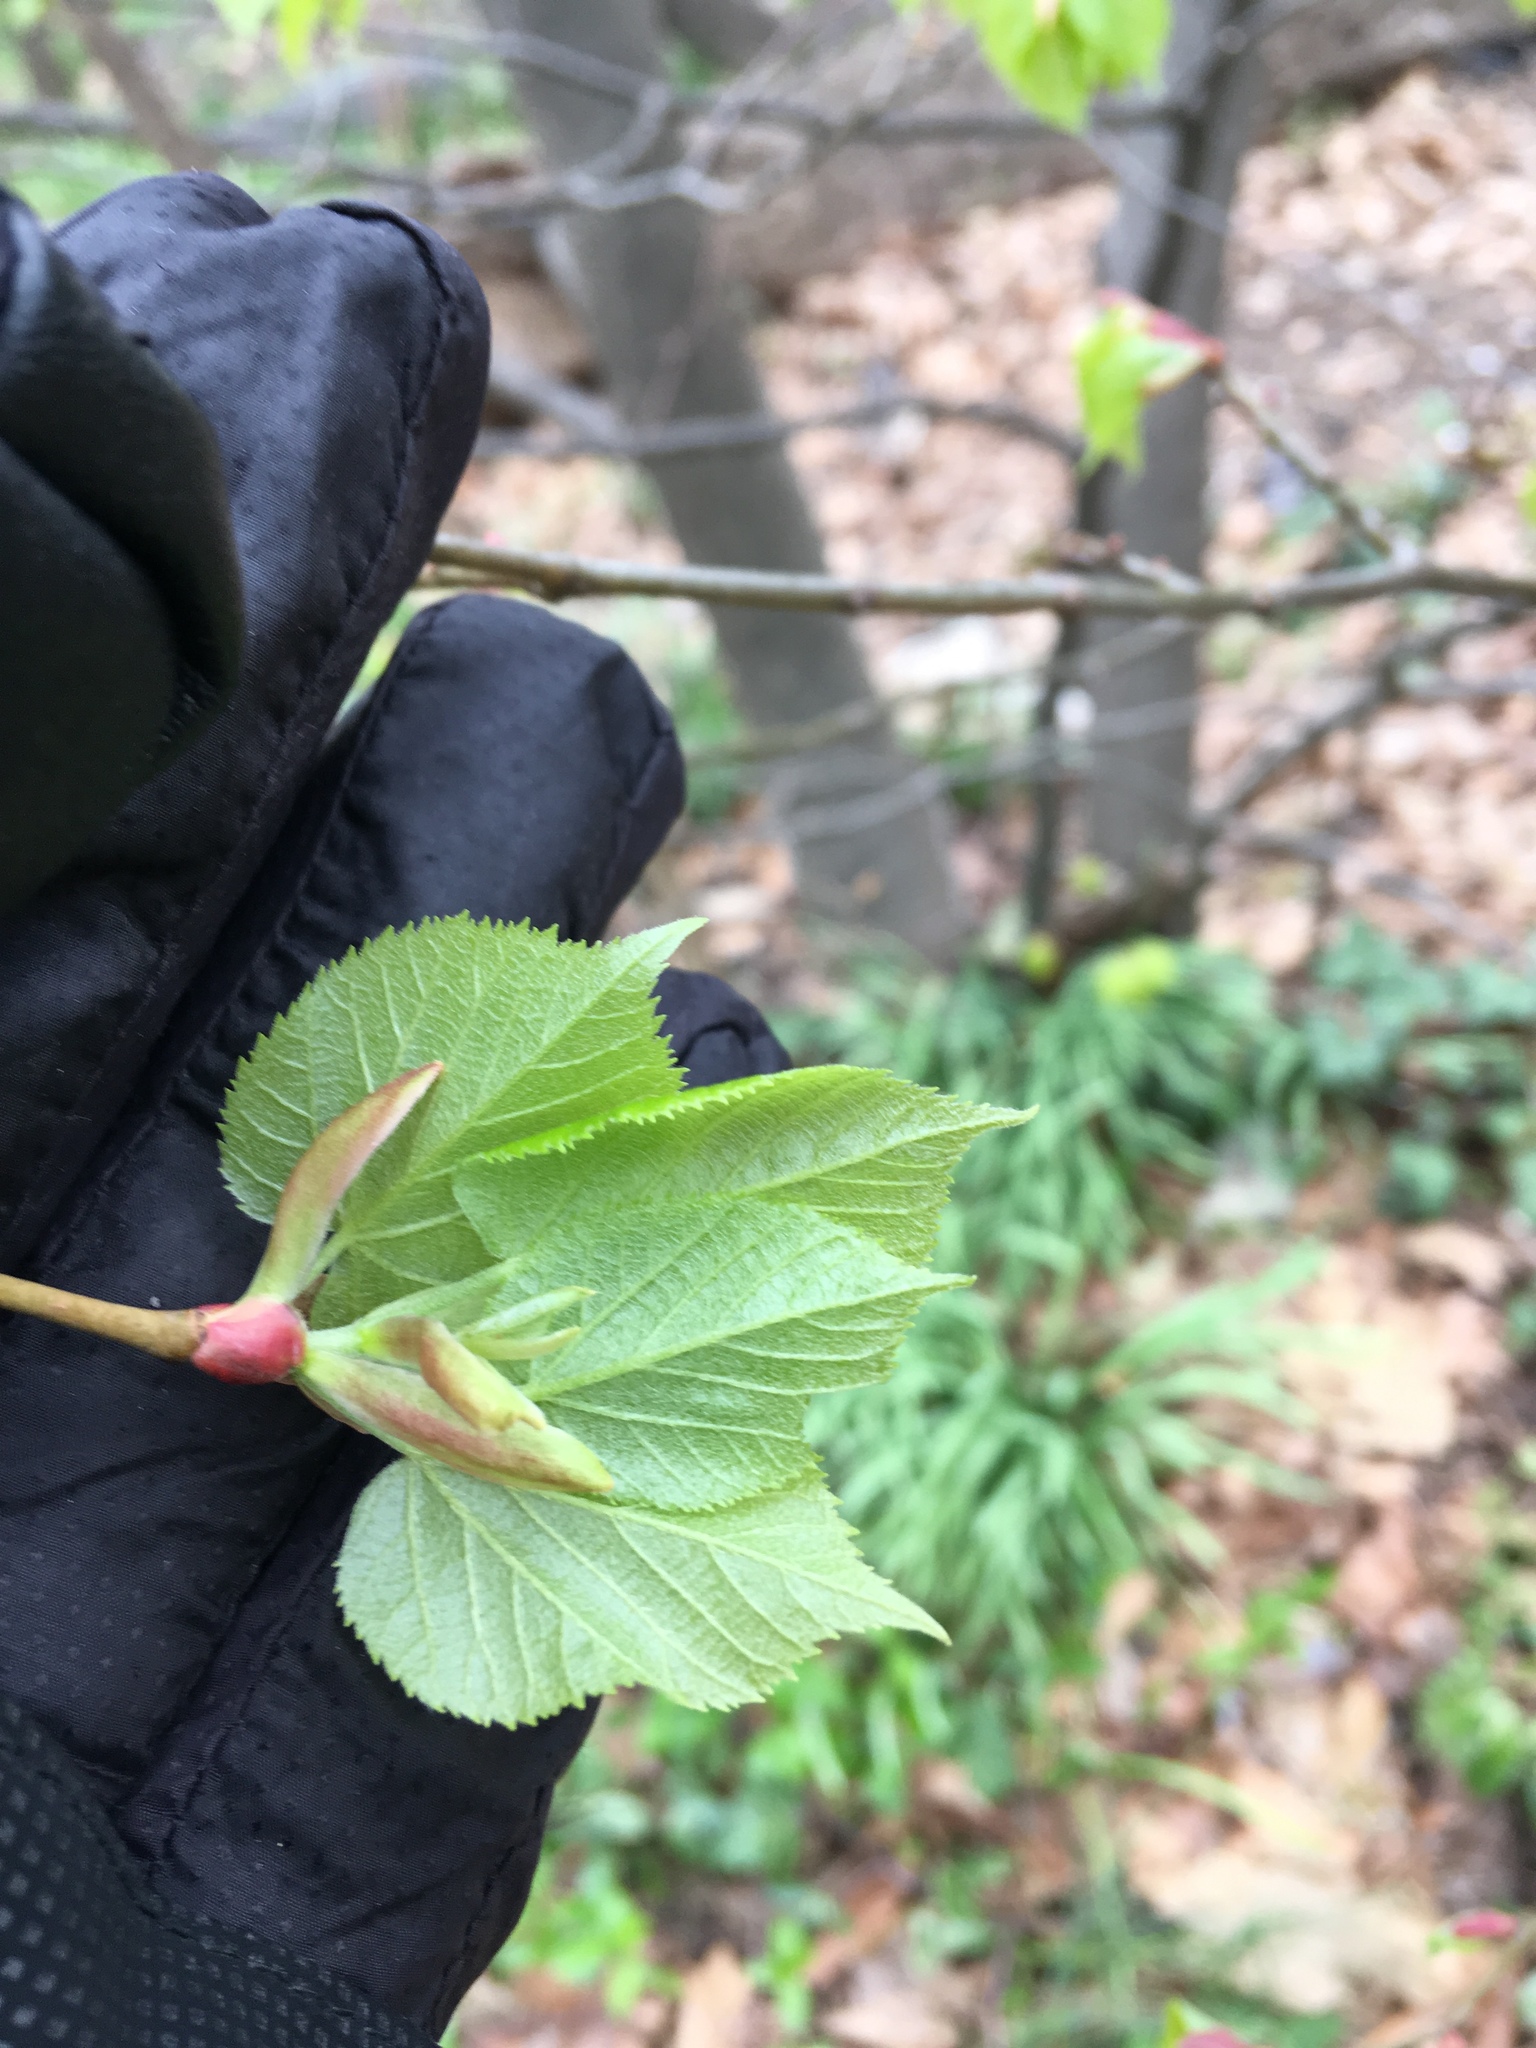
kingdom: Plantae
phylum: Tracheophyta
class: Magnoliopsida
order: Malvales
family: Malvaceae
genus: Tilia
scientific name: Tilia cordata
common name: Small-leaved lime
